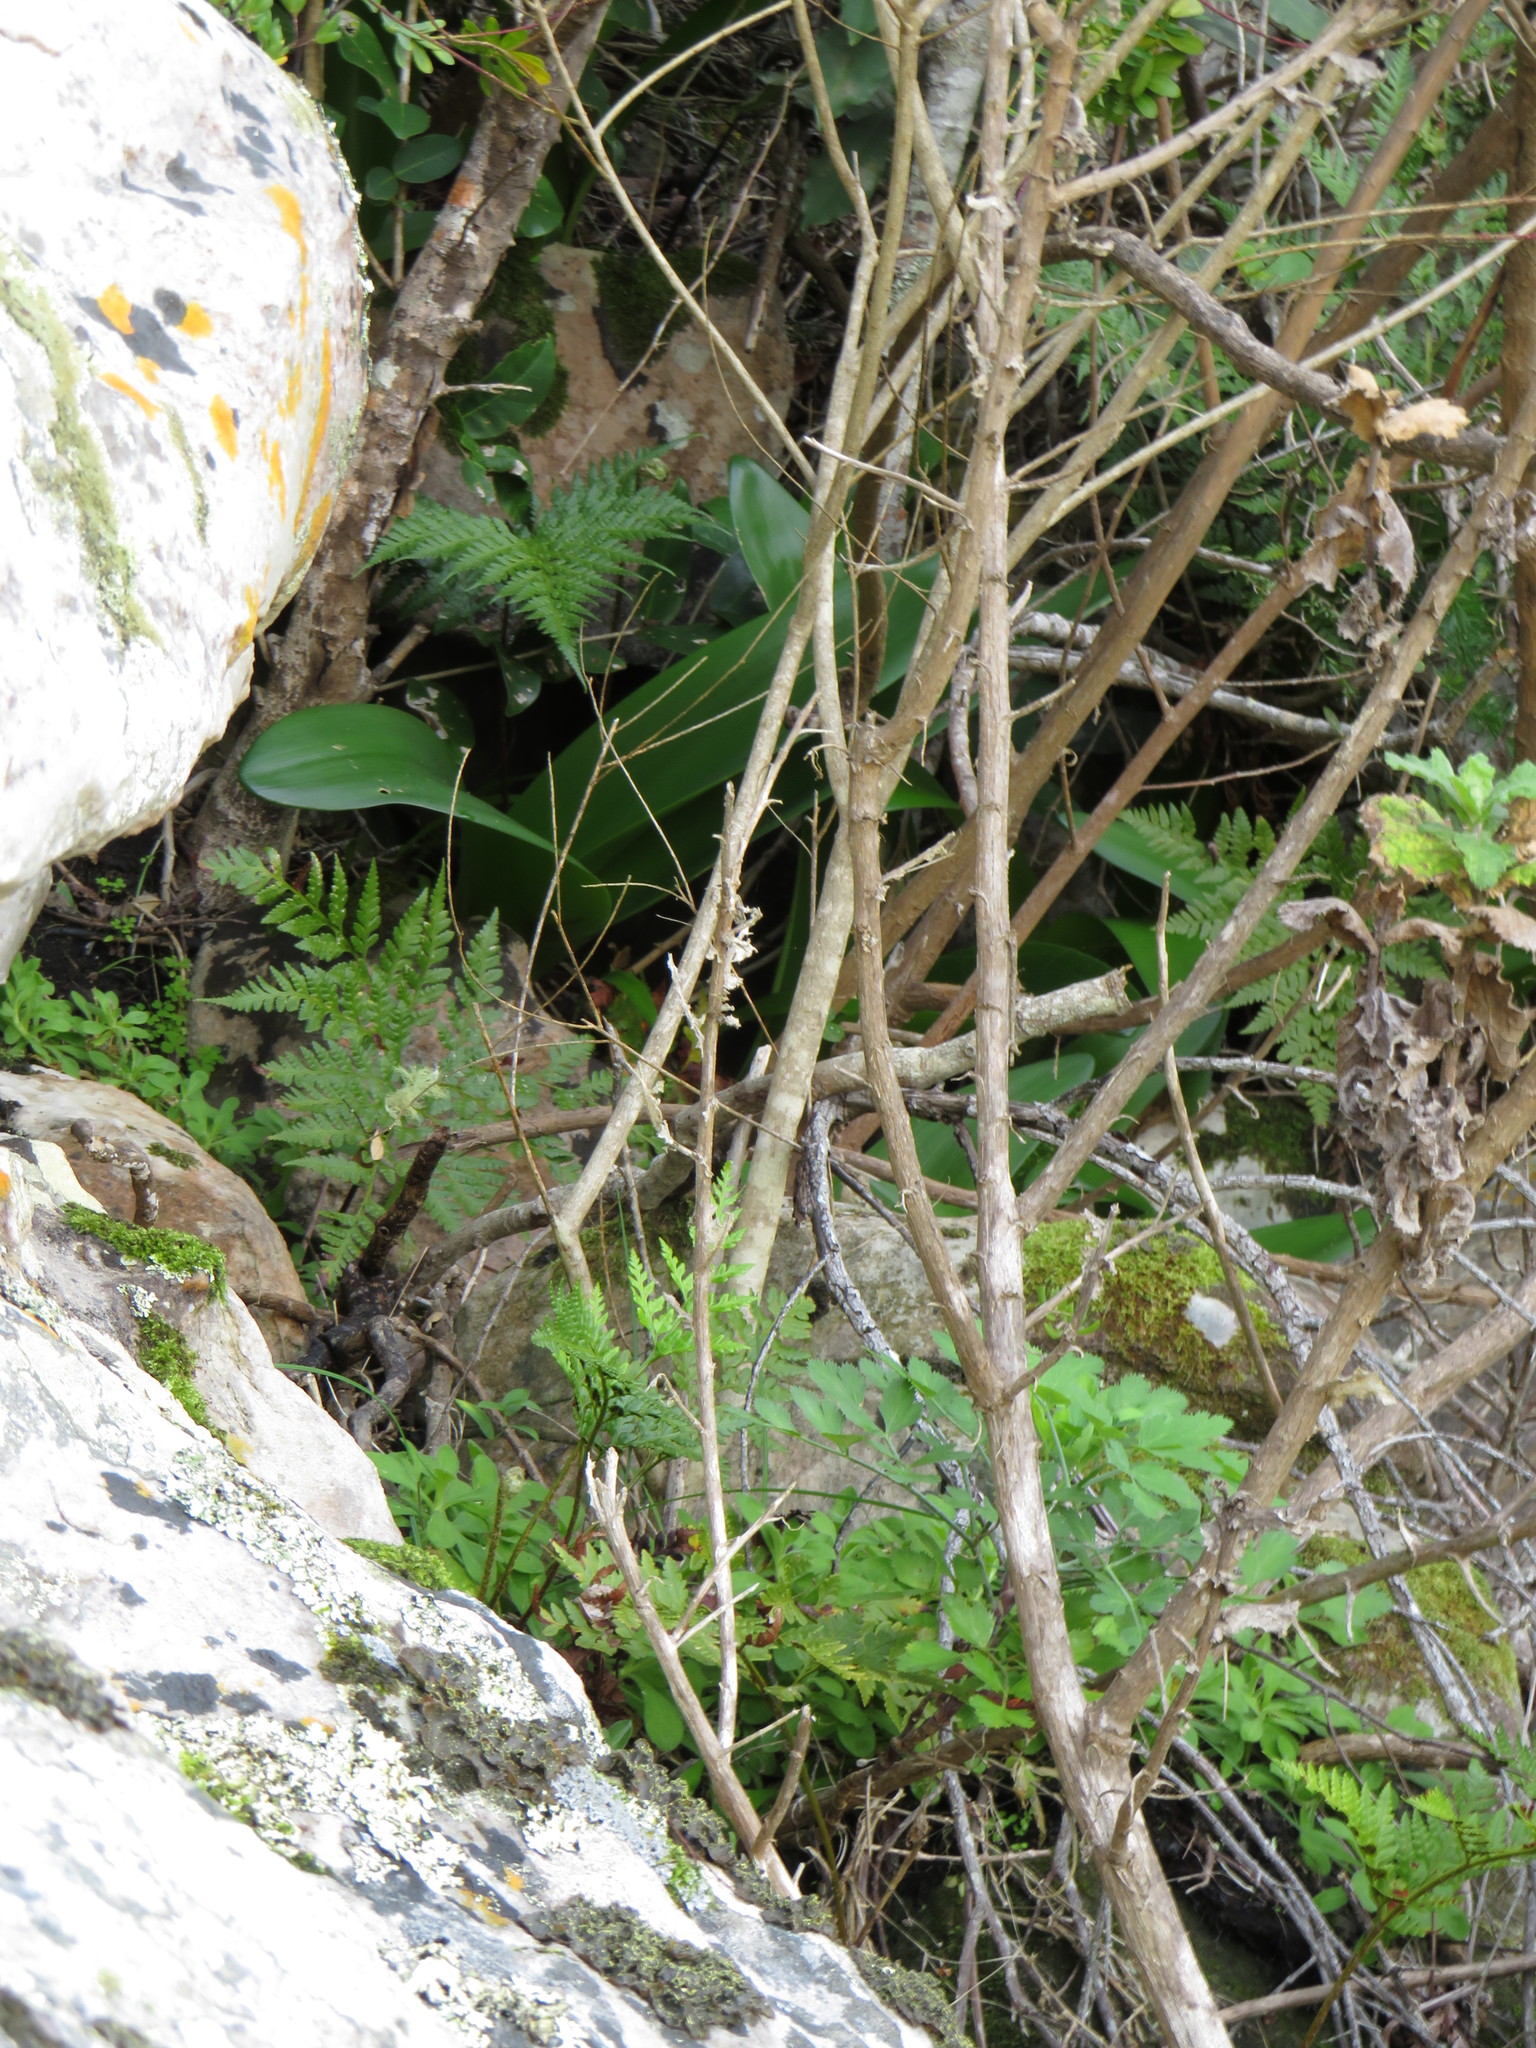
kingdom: Plantae
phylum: Tracheophyta
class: Liliopsida
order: Asparagales
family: Amaryllidaceae
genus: Haemanthus
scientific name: Haemanthus coccineus
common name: Cape-tulip
